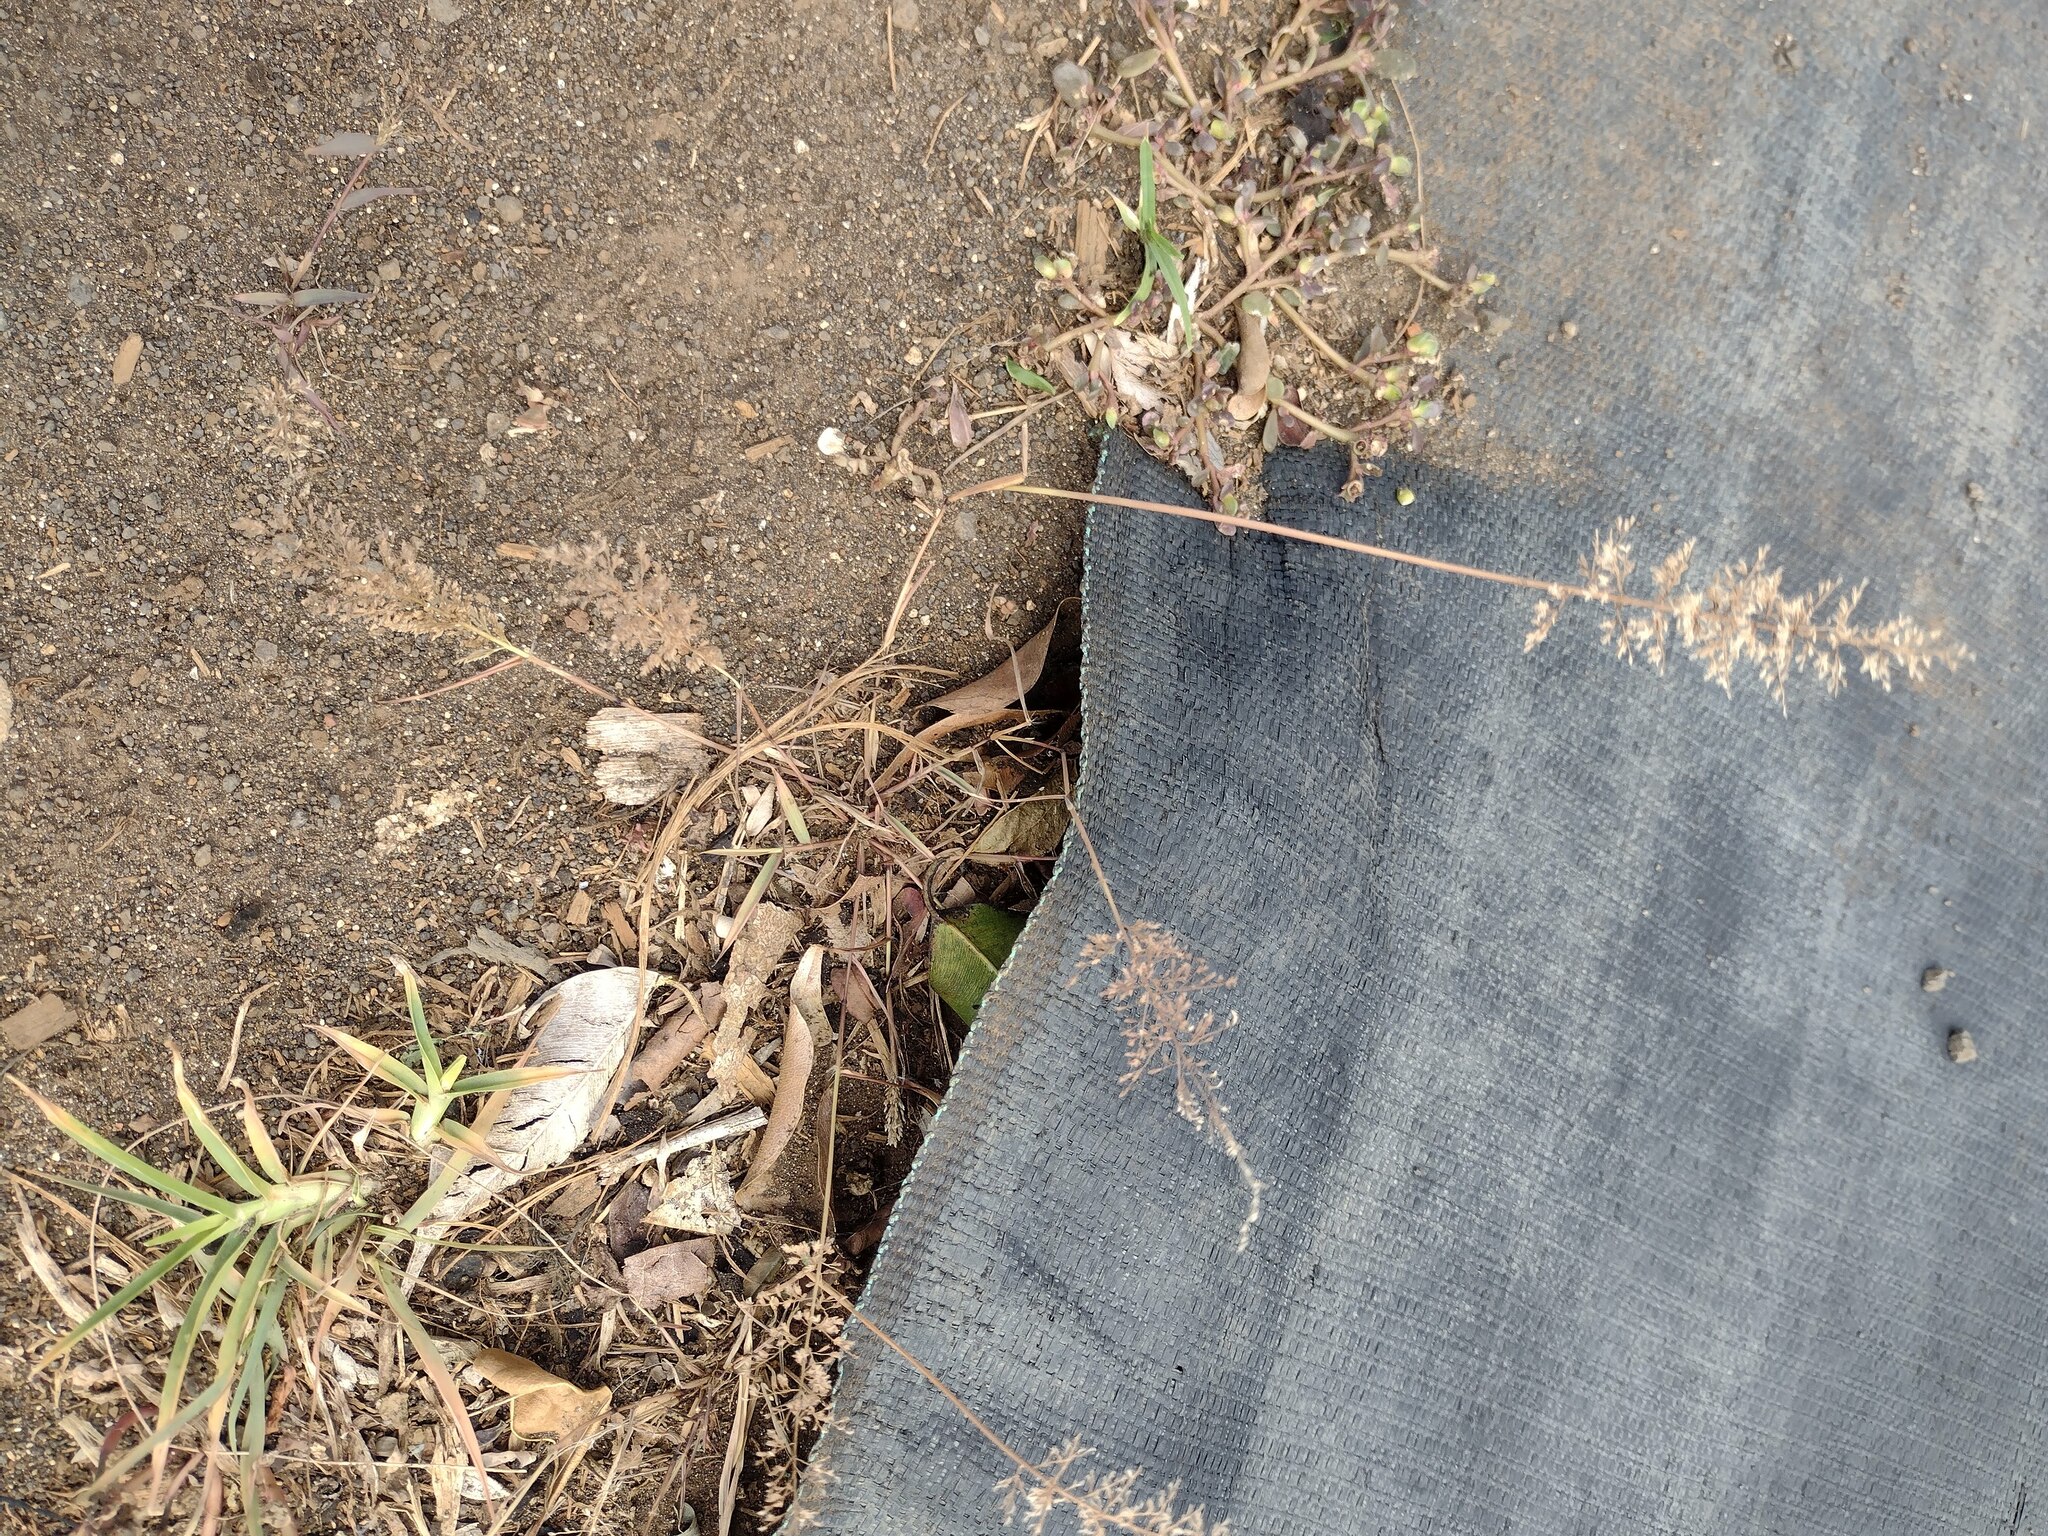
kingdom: Plantae
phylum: Tracheophyta
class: Liliopsida
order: Poales
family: Poaceae
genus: Eragrostis
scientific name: Eragrostis tenella
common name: Japanese lovegrass
